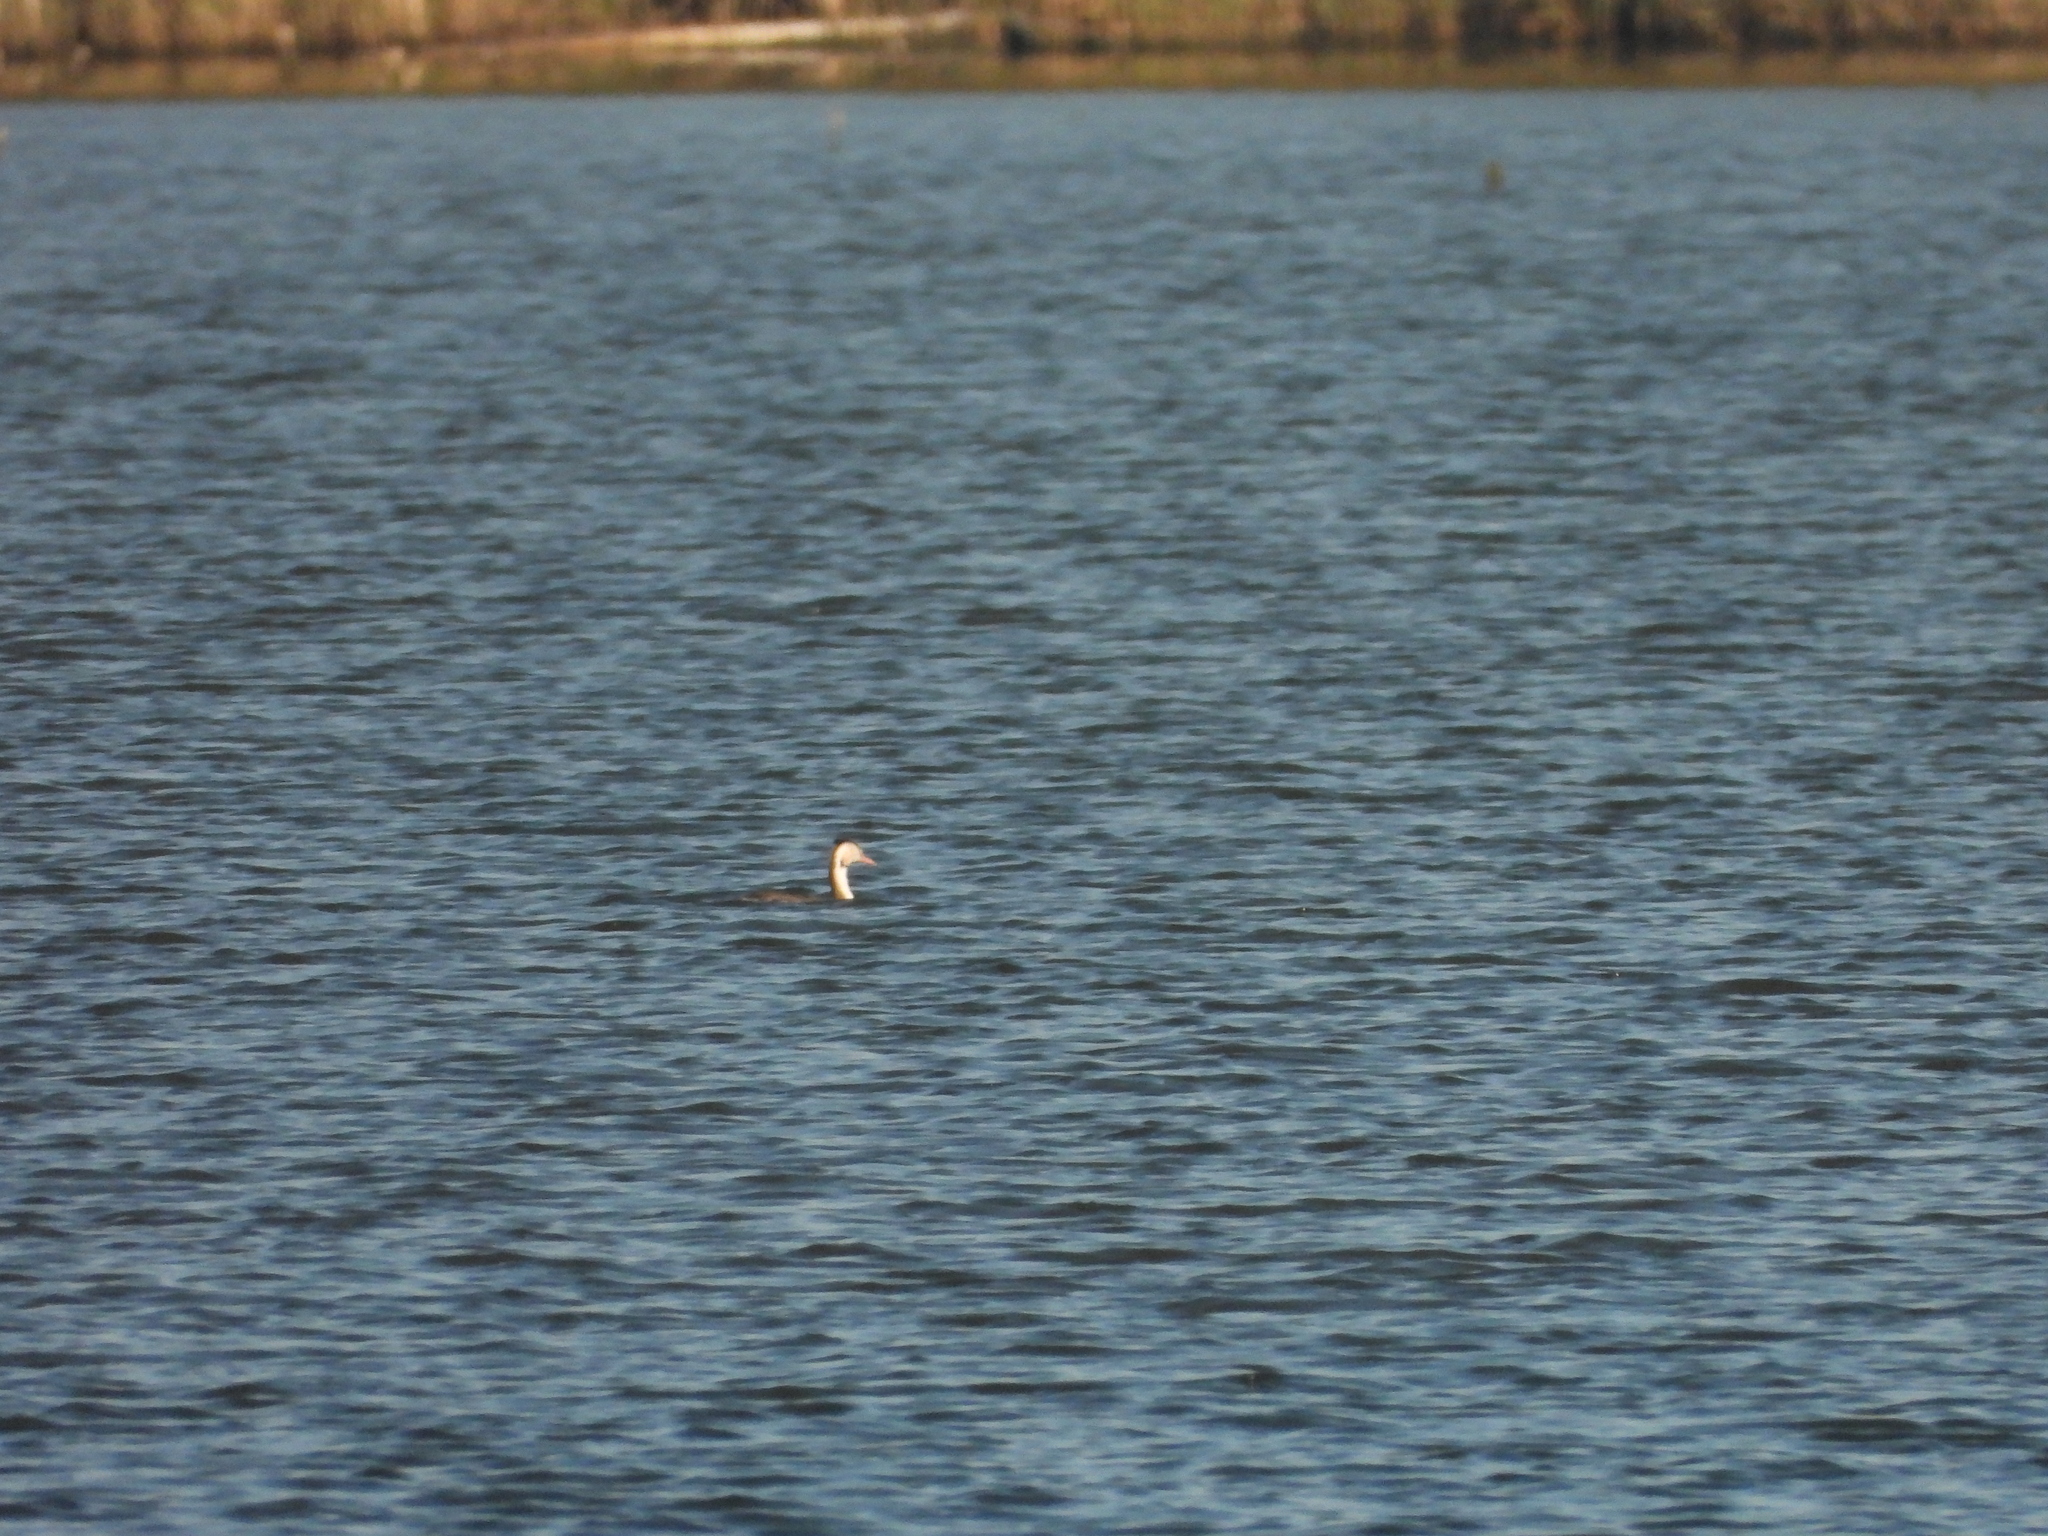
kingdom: Animalia
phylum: Chordata
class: Aves
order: Podicipediformes
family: Podicipedidae
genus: Podiceps
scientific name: Podiceps cristatus
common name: Great crested grebe
